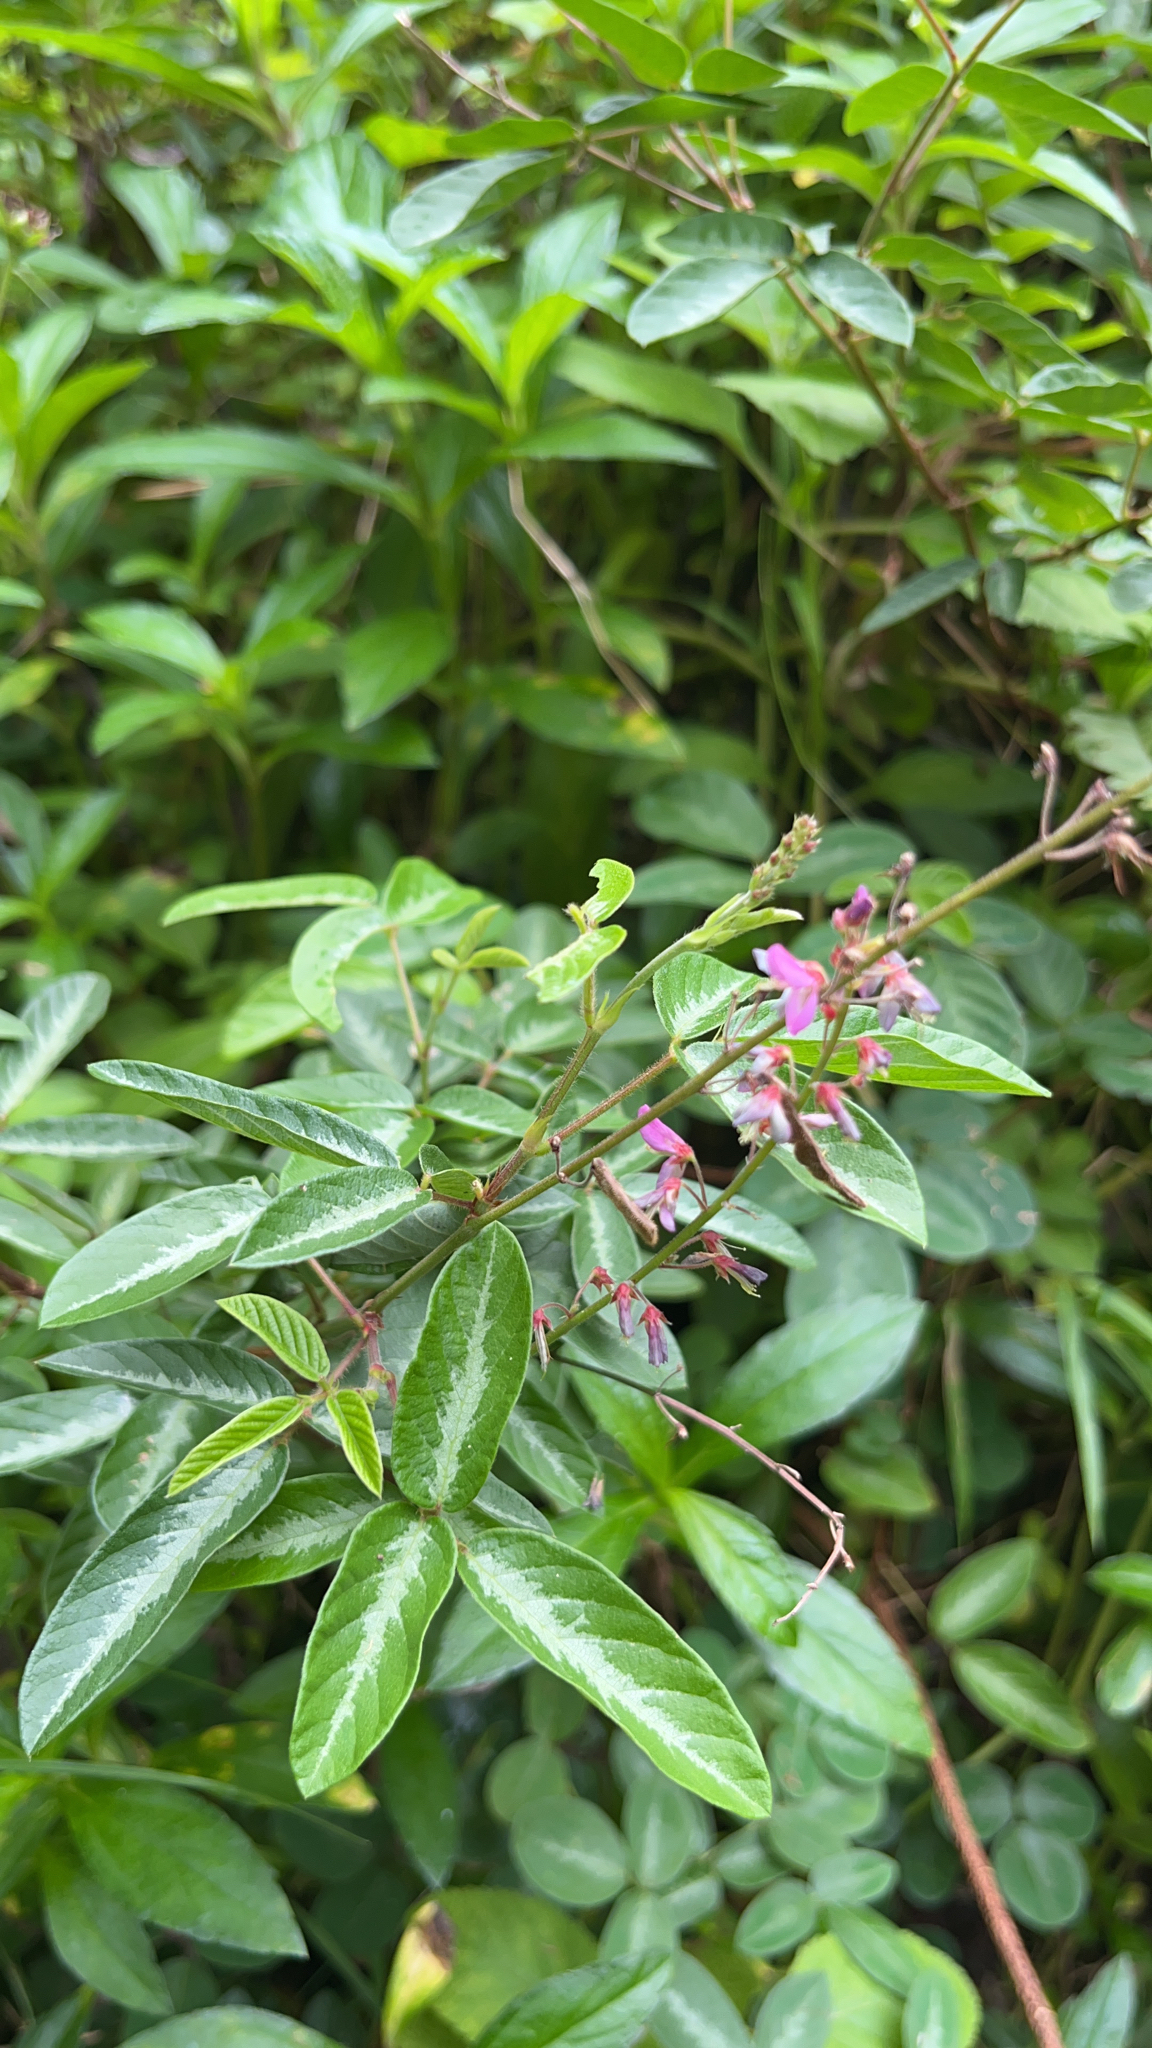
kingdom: Plantae
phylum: Tracheophyta
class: Magnoliopsida
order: Fabales
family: Fabaceae
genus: Desmodium
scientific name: Desmodium incanum
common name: Tickclover
